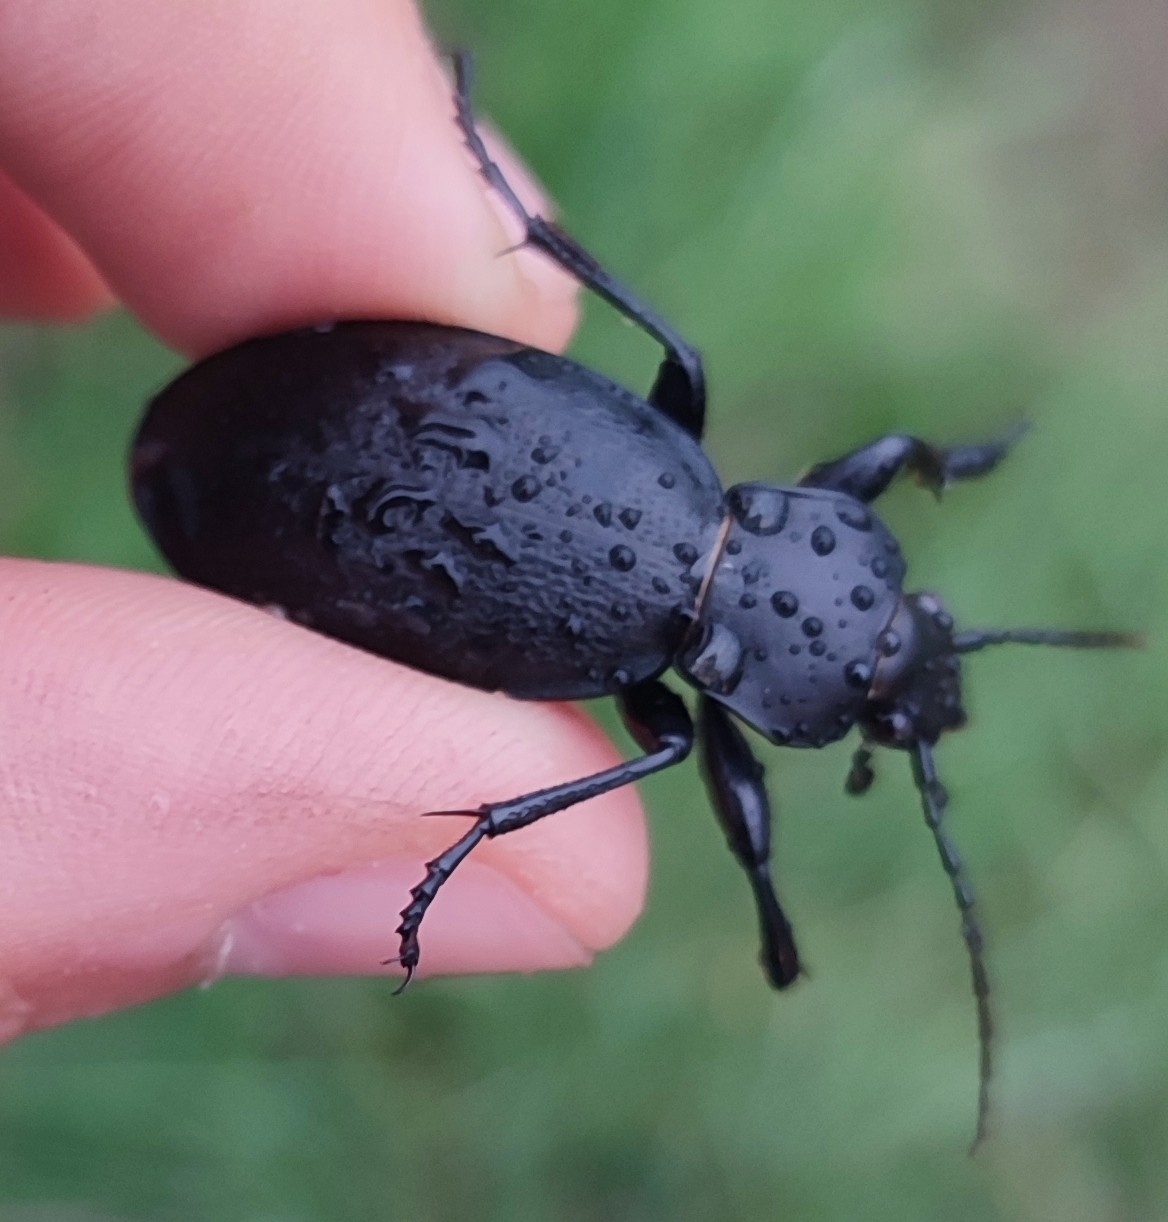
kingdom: Animalia
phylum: Arthropoda
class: Insecta
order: Coleoptera
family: Carabidae
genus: Carabus
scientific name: Carabus coriaceus
